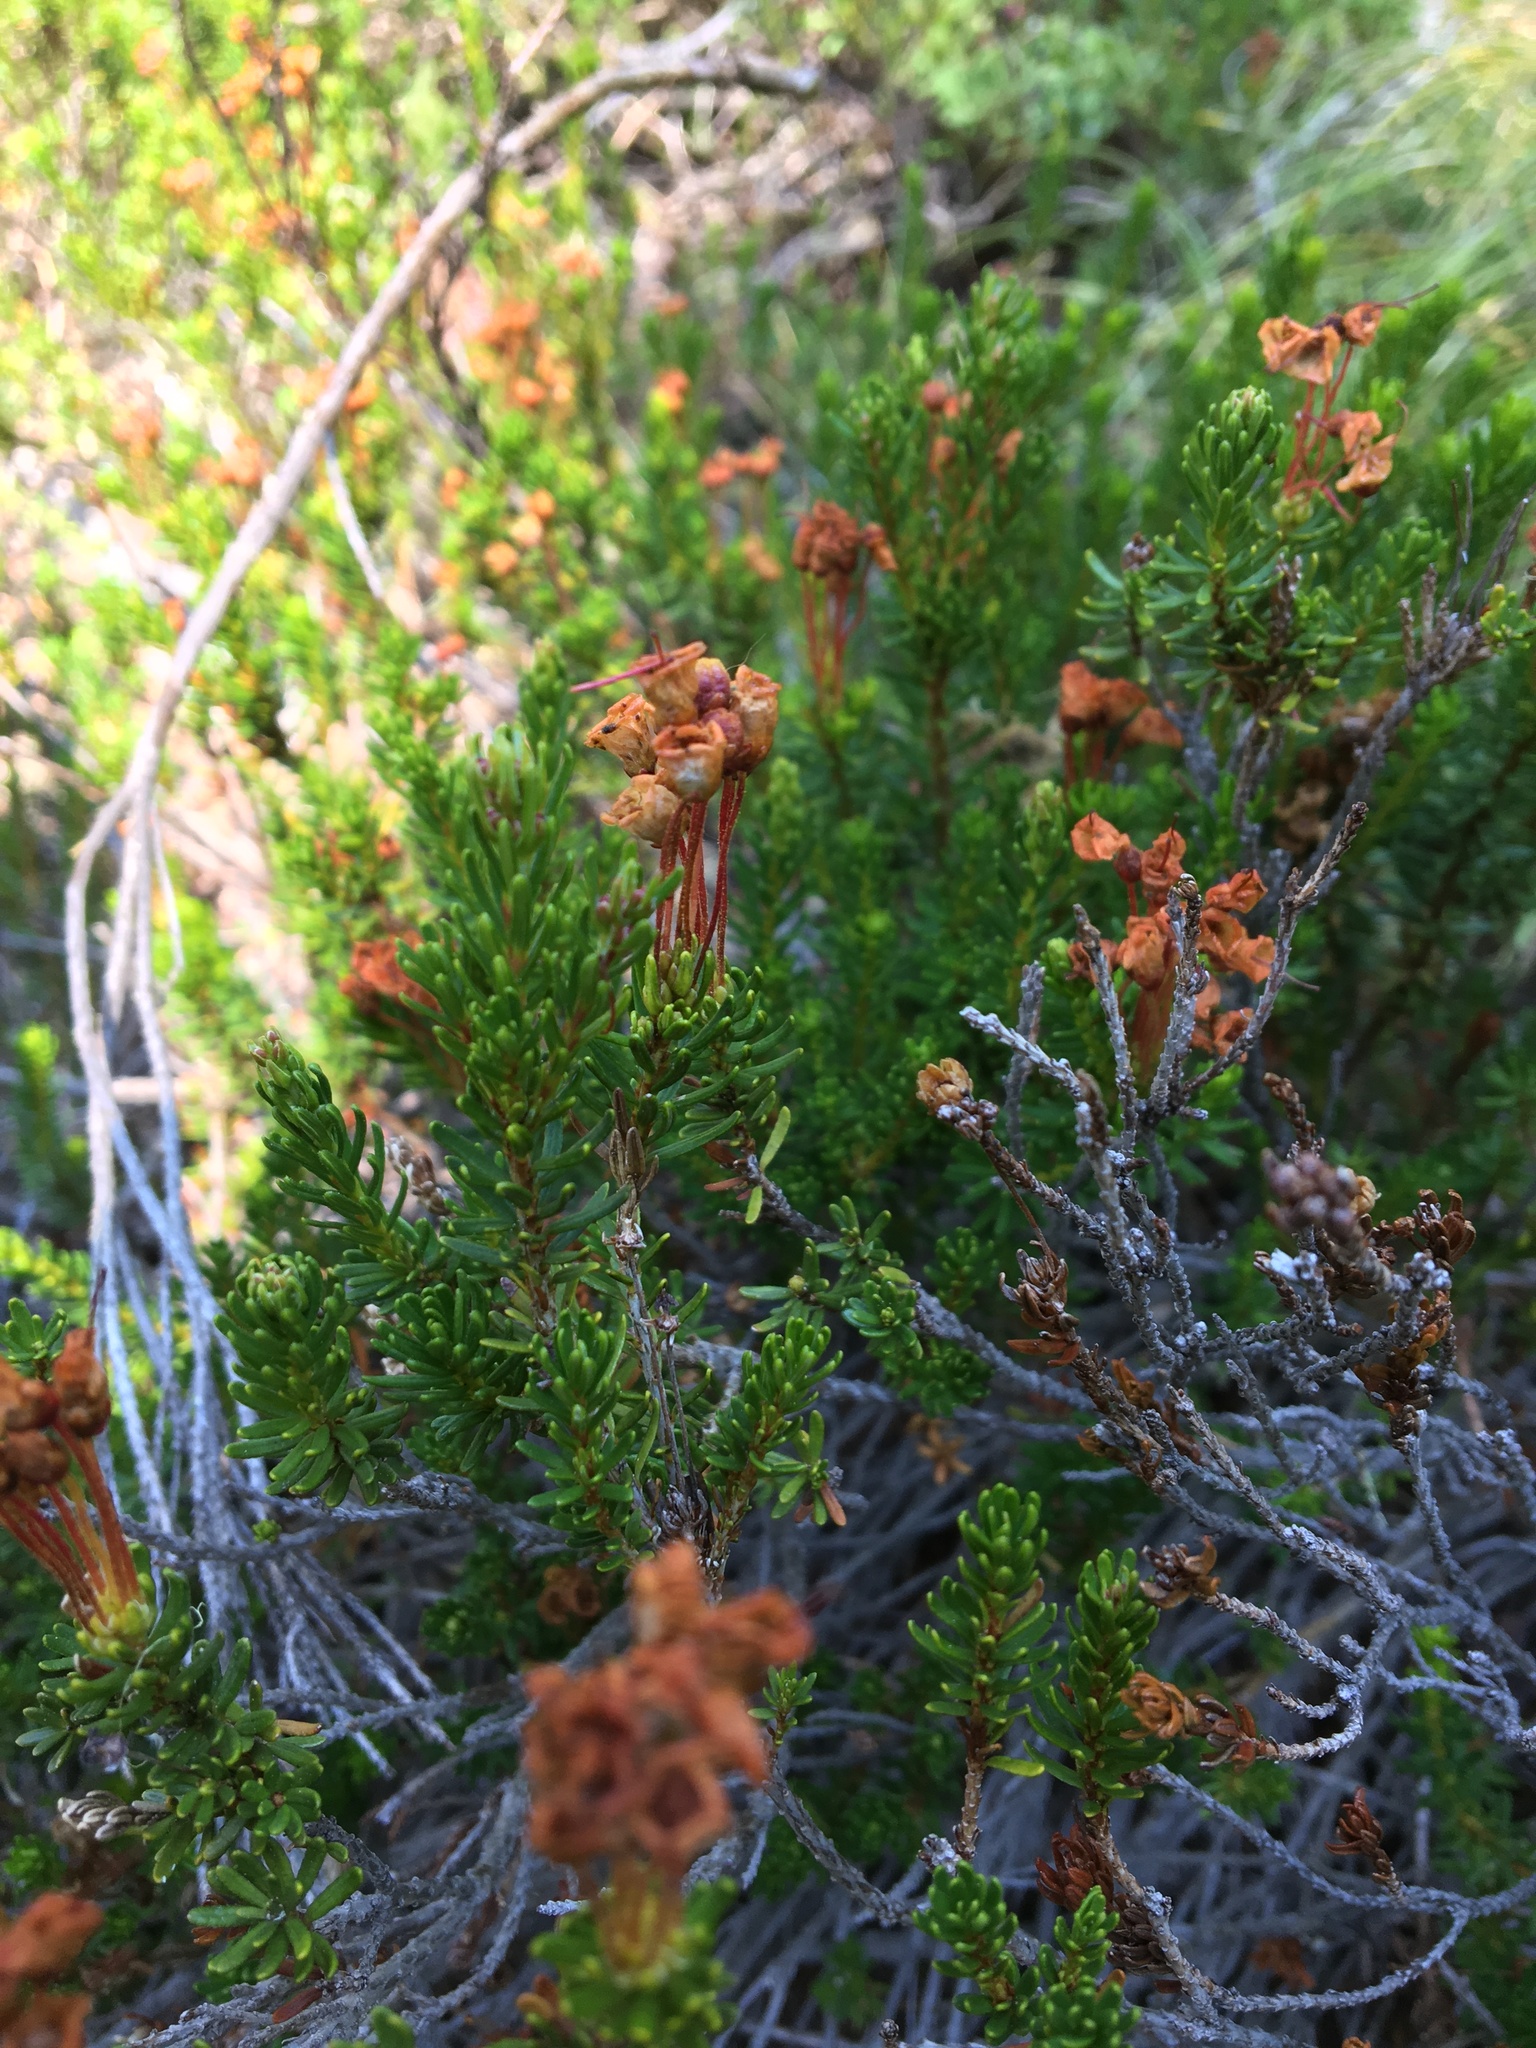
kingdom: Plantae
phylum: Tracheophyta
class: Magnoliopsida
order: Ericales
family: Ericaceae
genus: Phyllodoce
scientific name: Phyllodoce empetriformis
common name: Pink mountain heather
